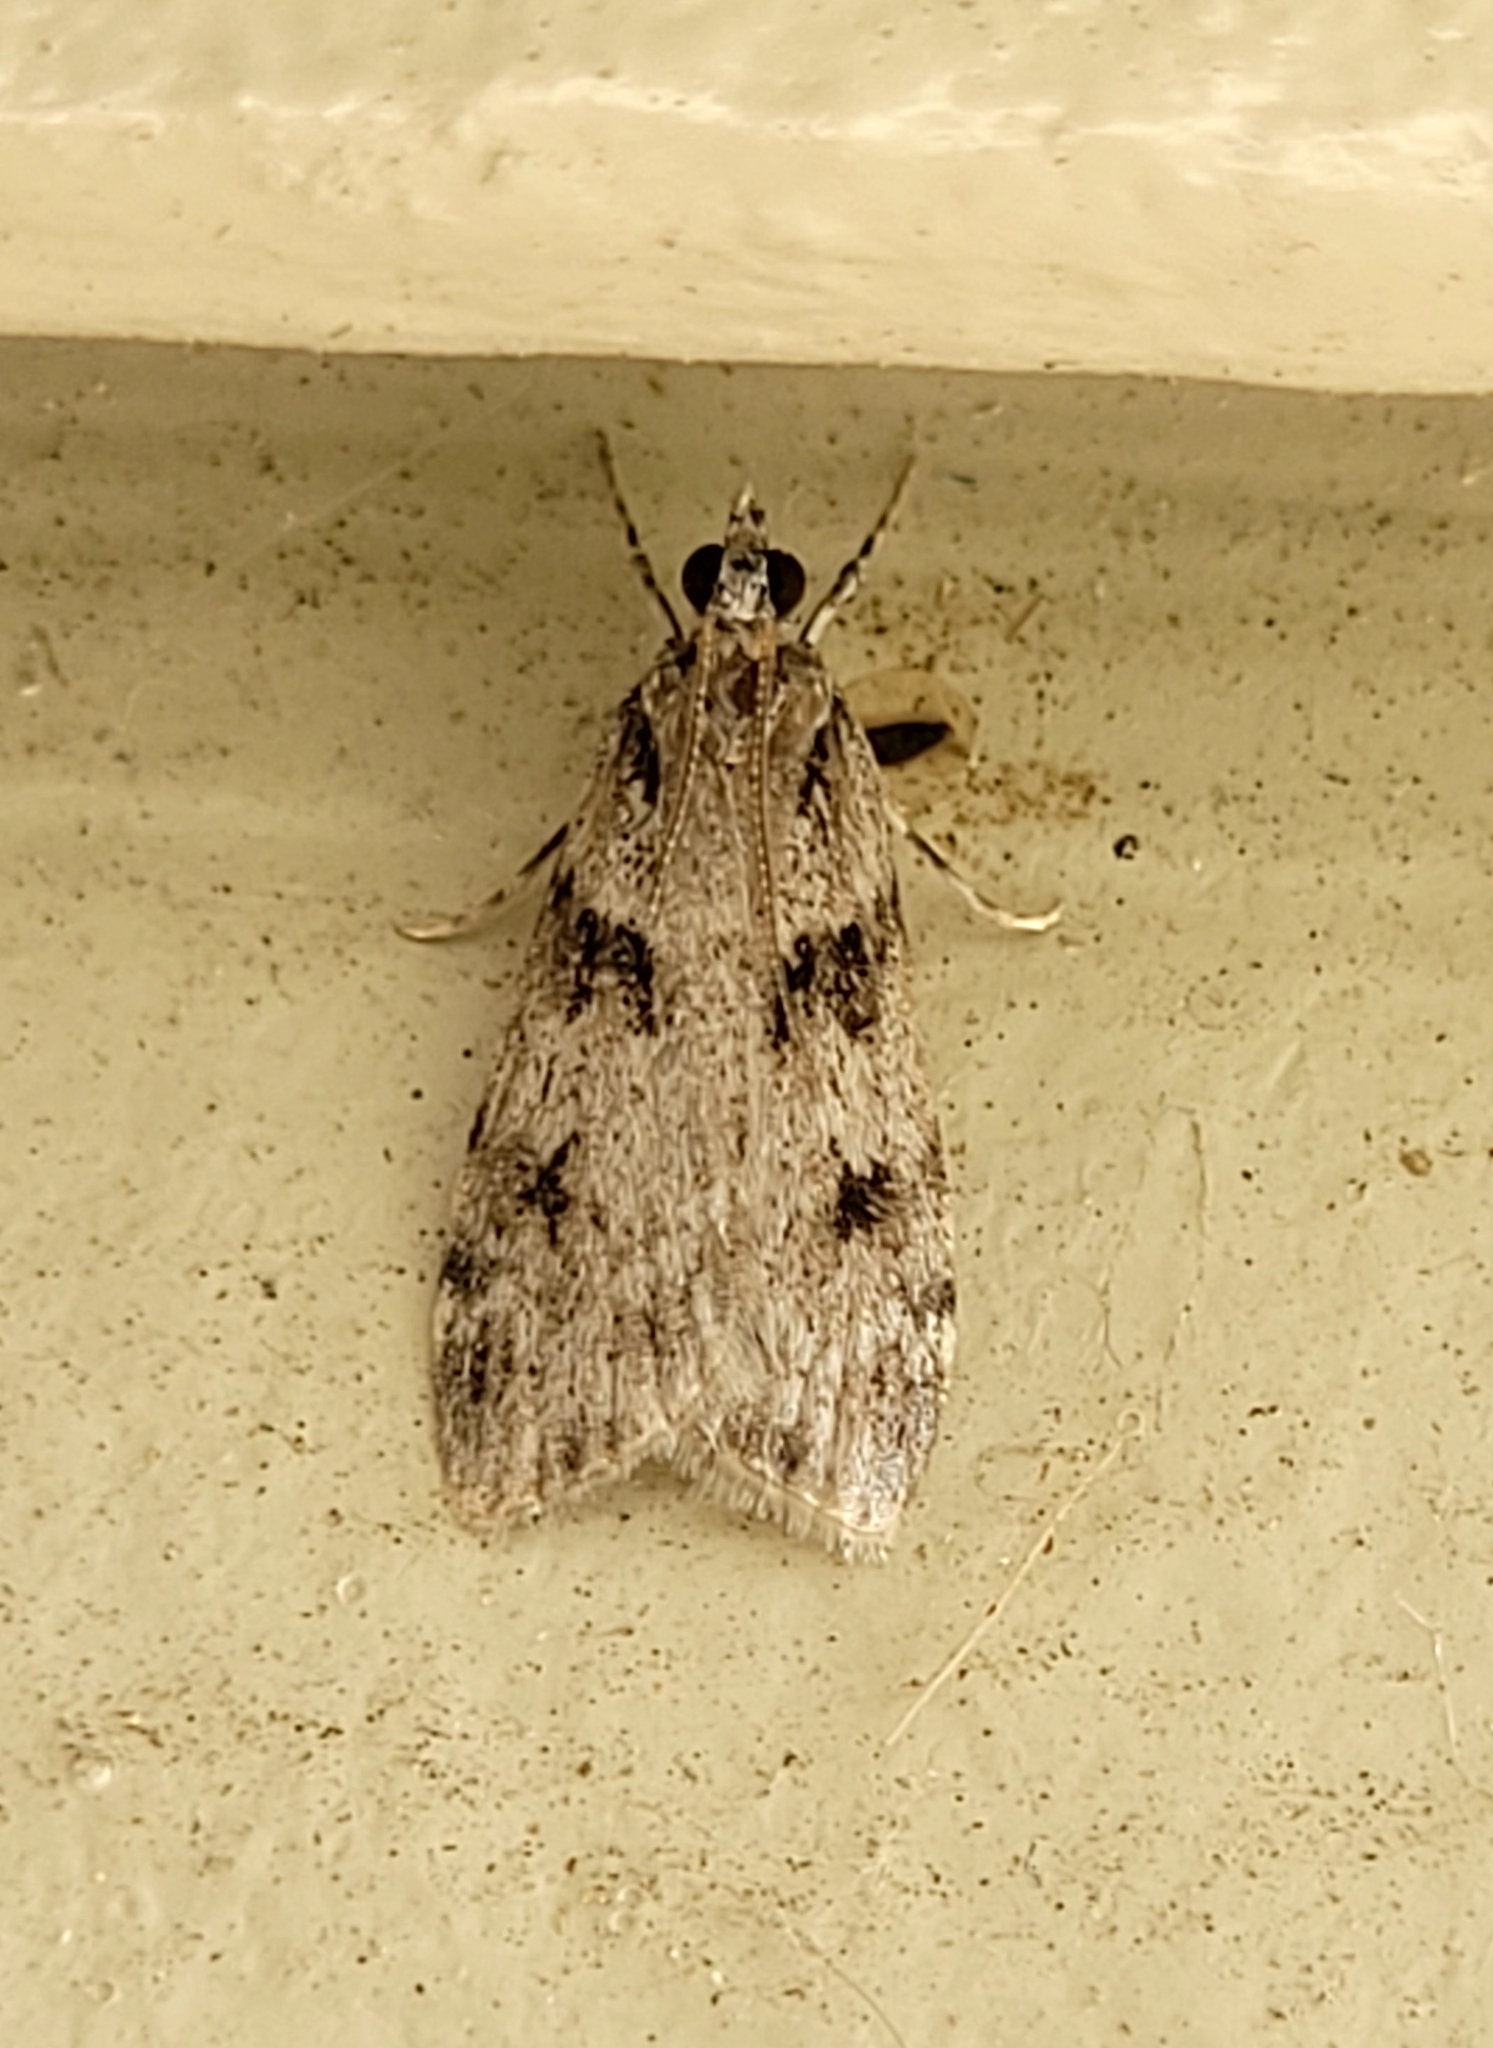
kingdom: Animalia
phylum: Arthropoda
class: Insecta
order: Lepidoptera
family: Crambidae
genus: Scoparia
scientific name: Scoparia biplagialis
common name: Double-striped scoparia moth
